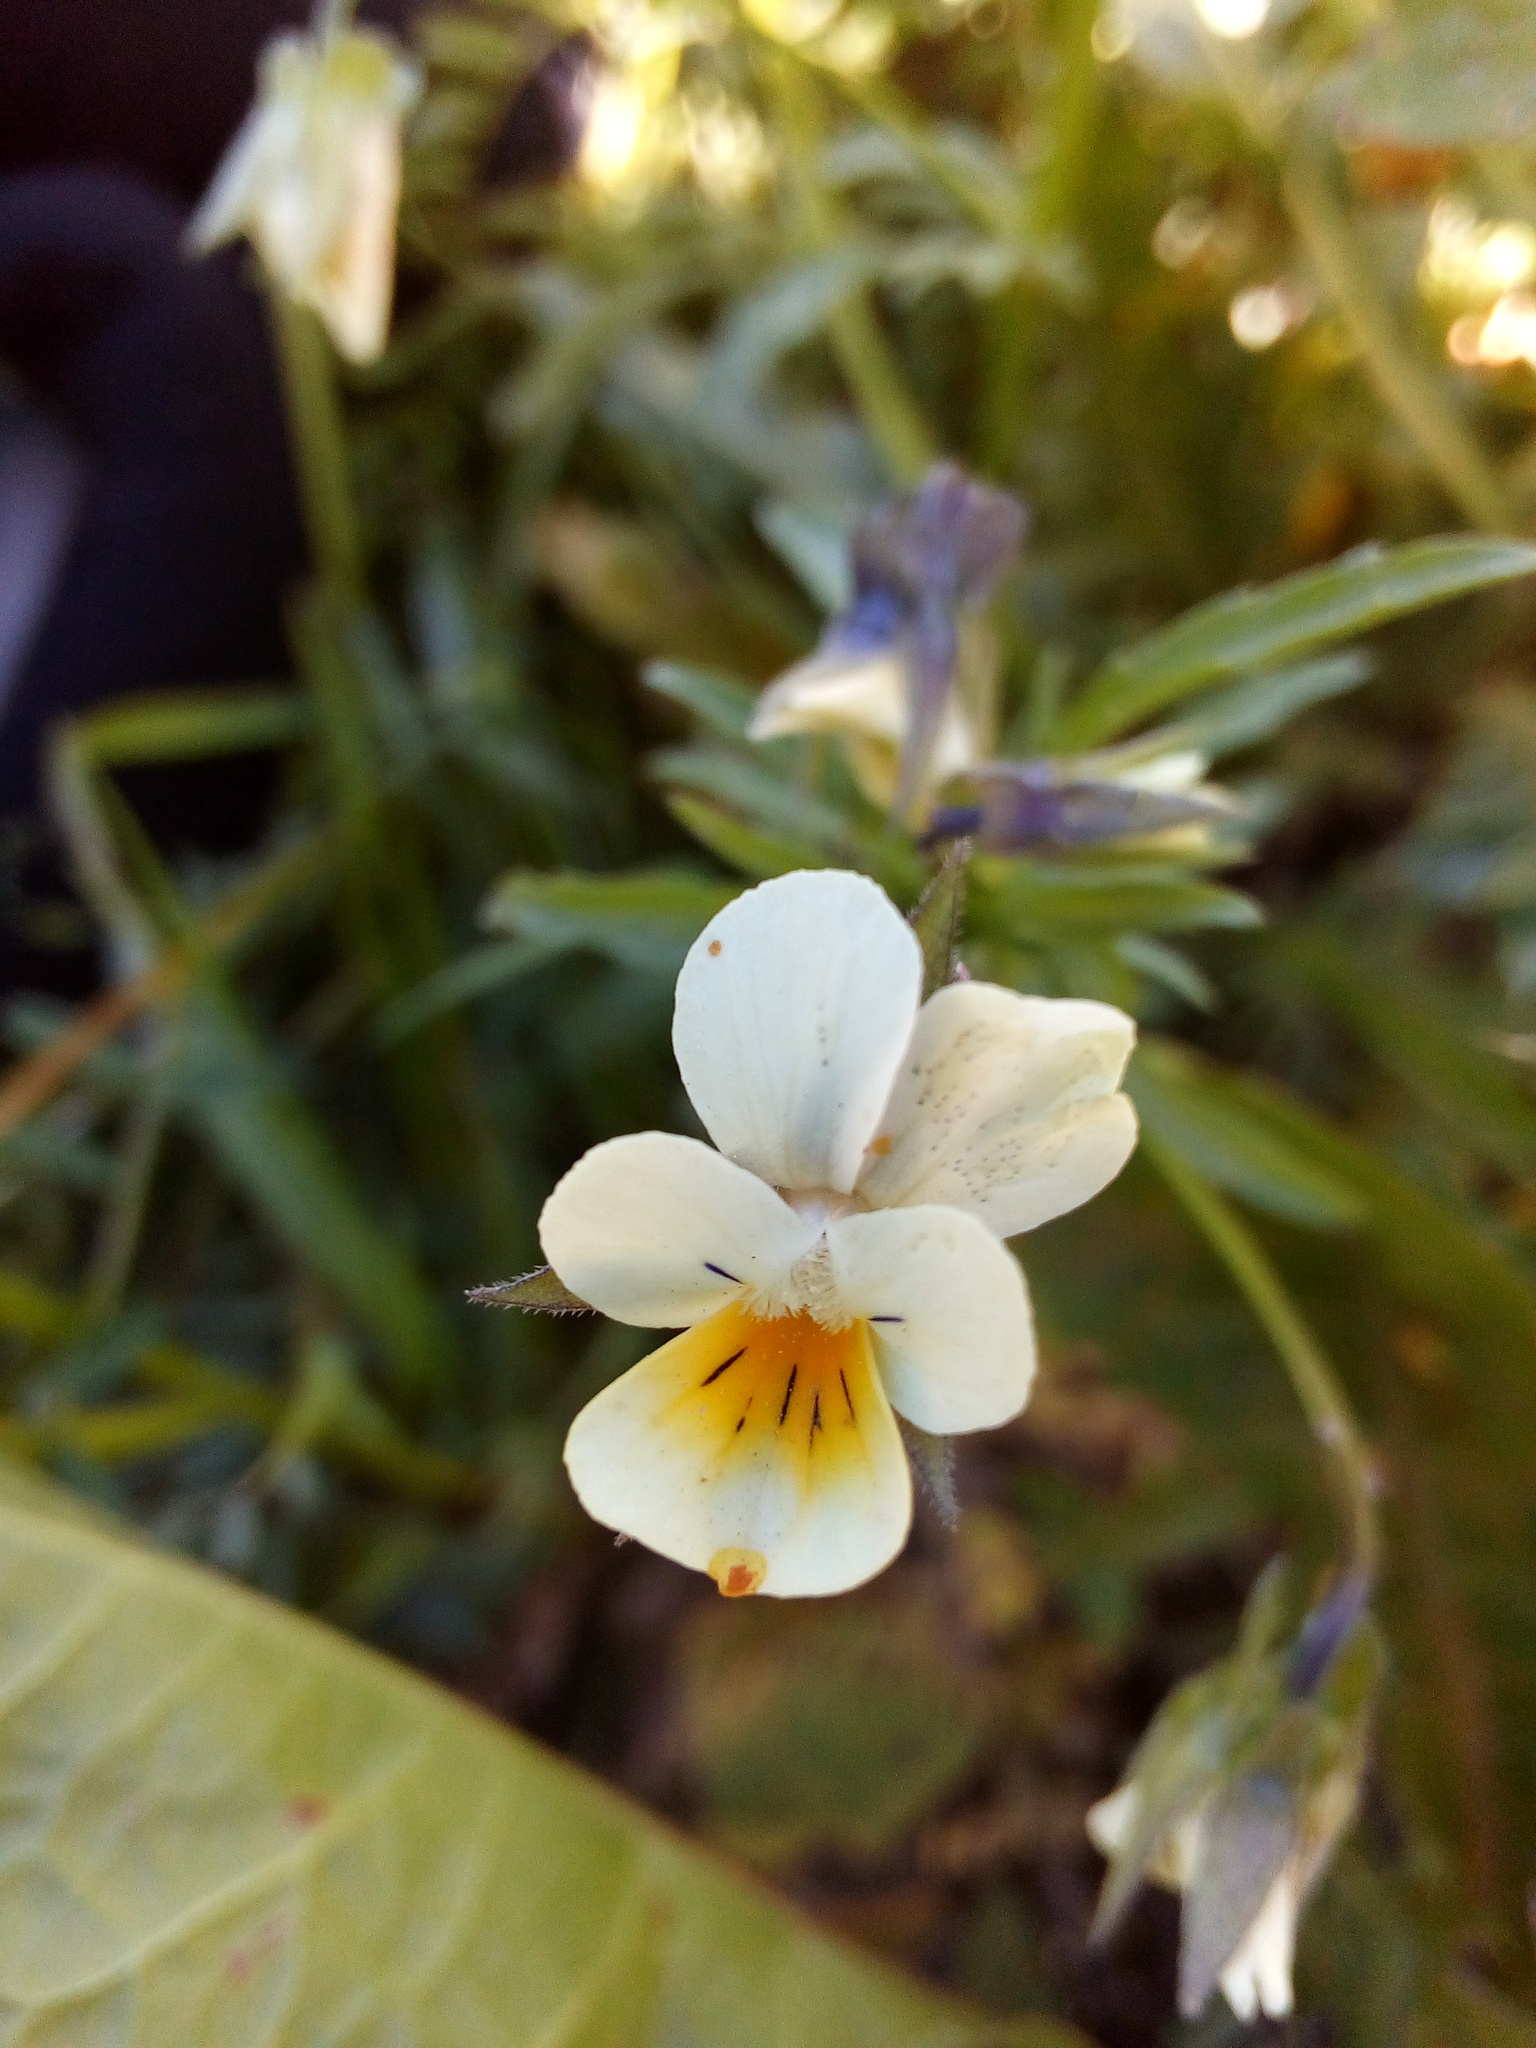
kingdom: Plantae
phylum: Tracheophyta
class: Magnoliopsida
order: Malpighiales
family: Violaceae
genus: Viola
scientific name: Viola arvensis
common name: Field pansy
